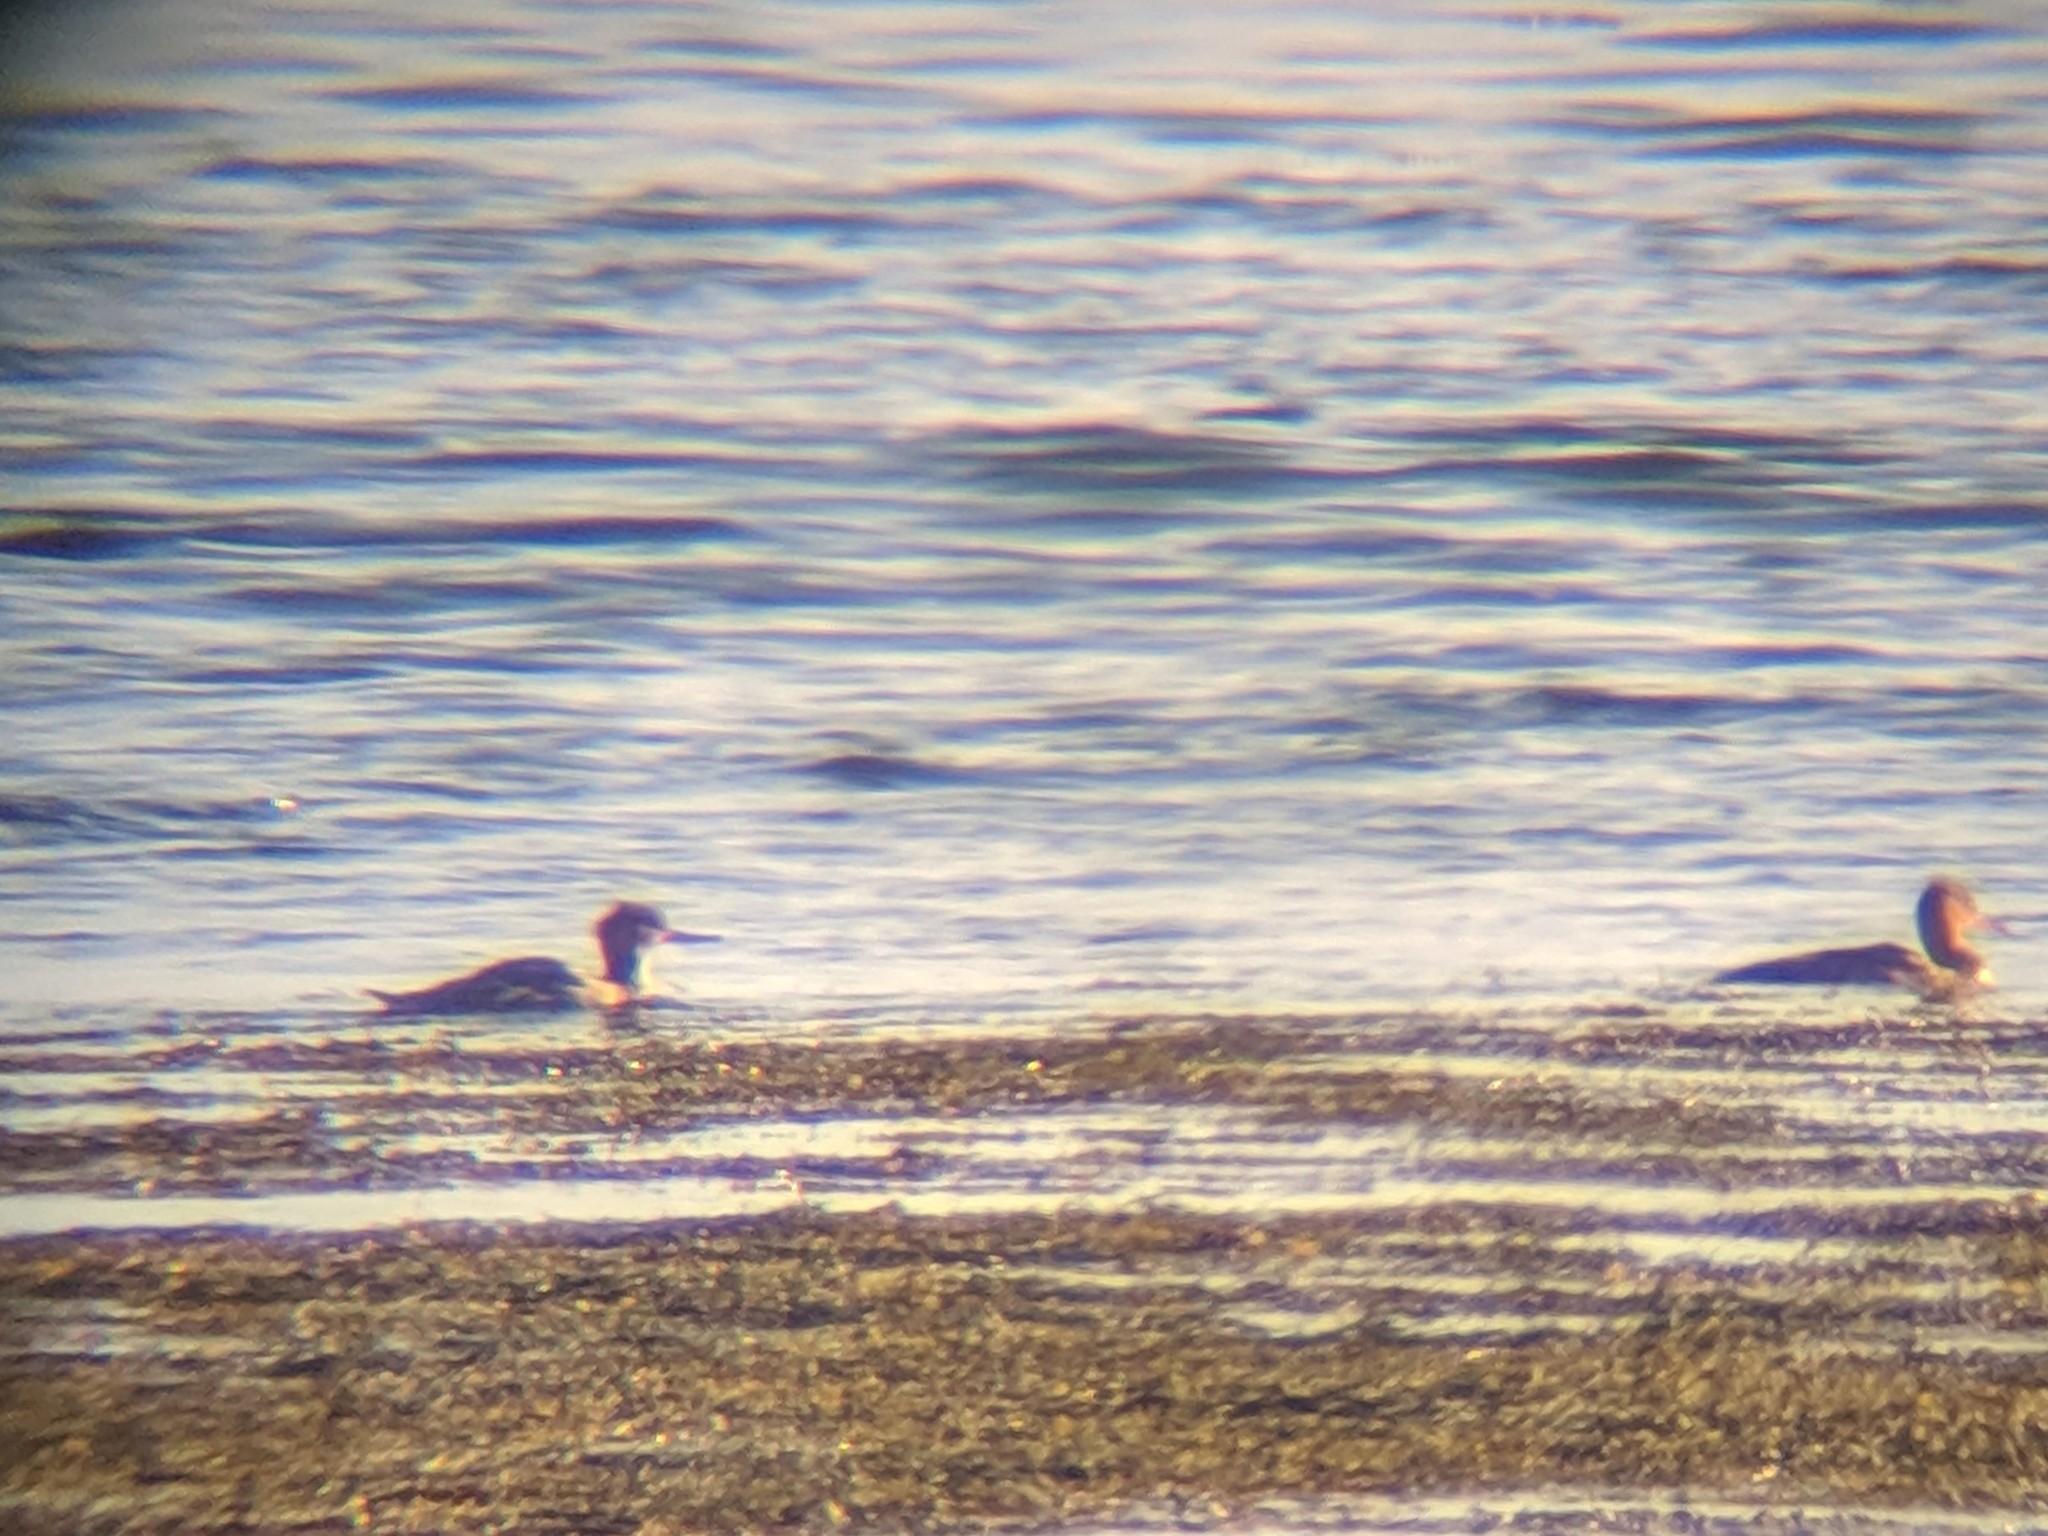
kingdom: Animalia
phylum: Chordata
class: Aves
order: Anseriformes
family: Anatidae
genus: Mergus
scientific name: Mergus serrator
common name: Red-breasted merganser
